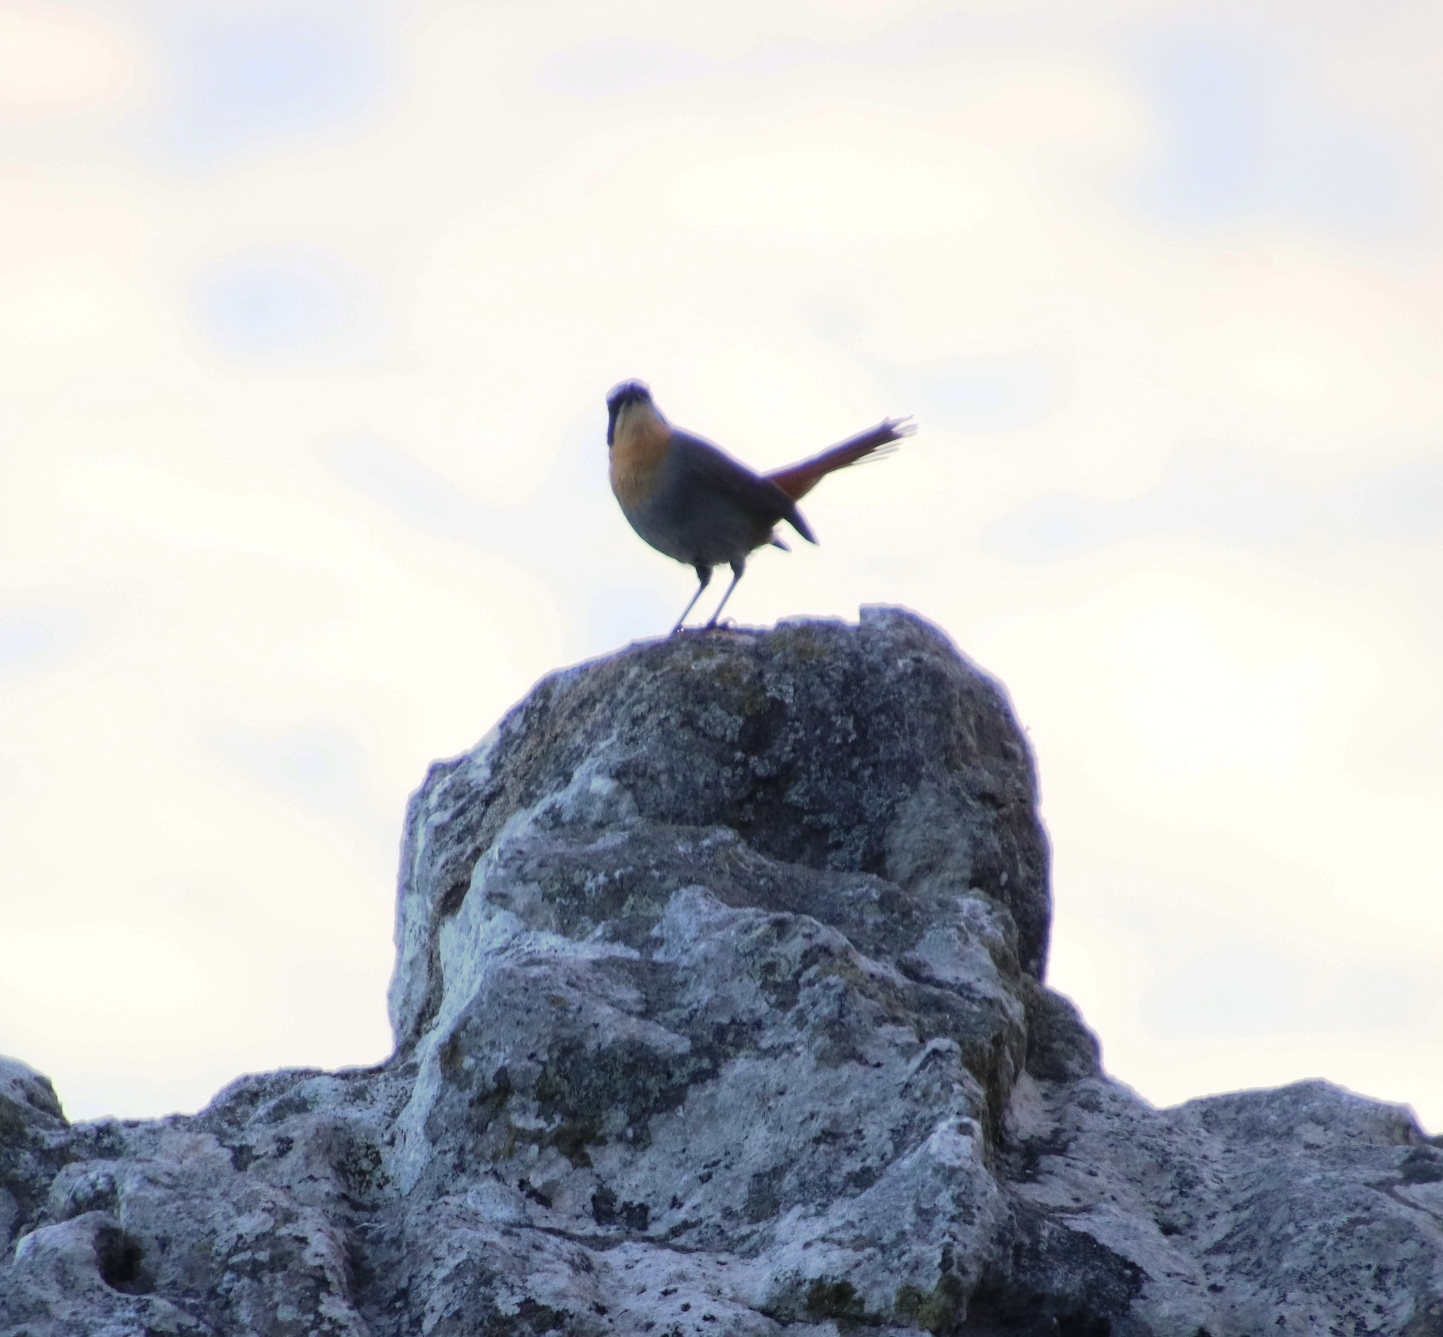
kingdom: Animalia
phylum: Chordata
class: Aves
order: Passeriformes
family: Muscicapidae
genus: Cossypha
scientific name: Cossypha caffra
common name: Cape robin-chat
